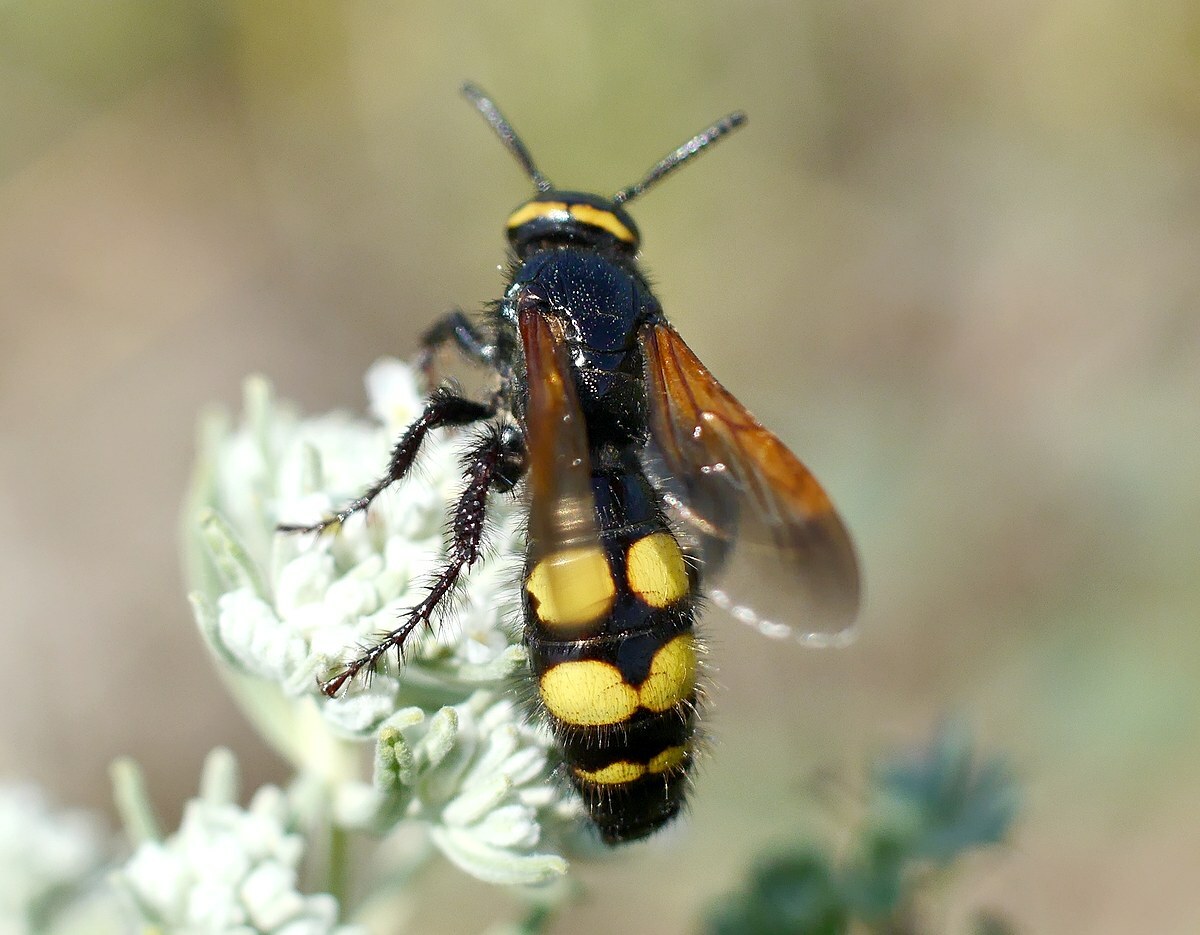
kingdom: Animalia
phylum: Arthropoda
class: Insecta
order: Hymenoptera
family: Scoliidae
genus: Scolia
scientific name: Scolia fuciformis
